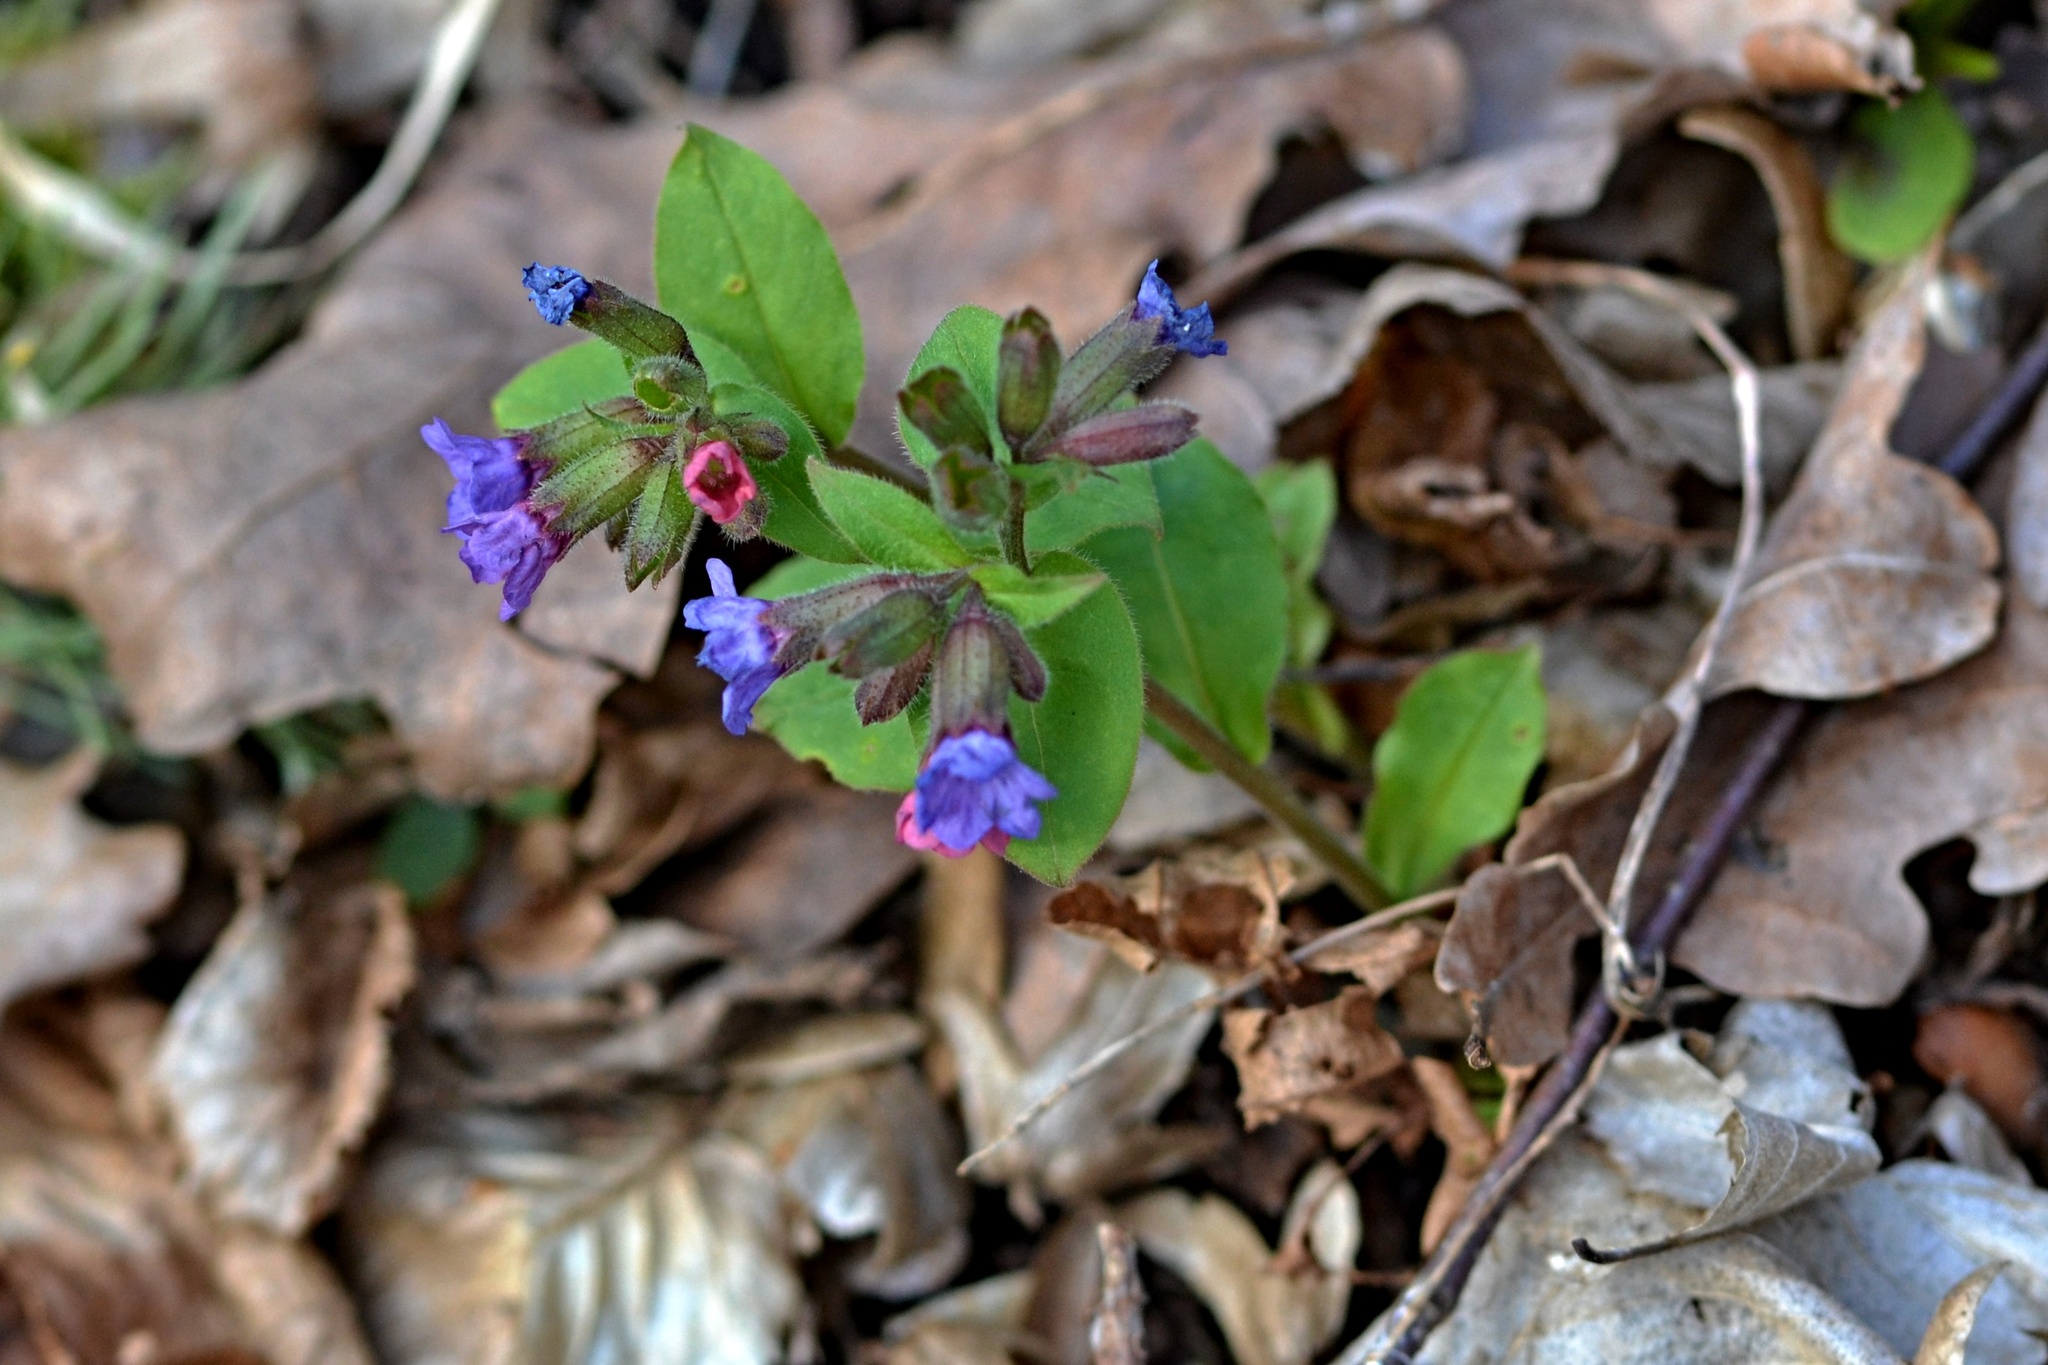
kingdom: Plantae
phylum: Tracheophyta
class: Magnoliopsida
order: Boraginales
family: Boraginaceae
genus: Pulmonaria
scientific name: Pulmonaria obscura
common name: Suffolk lungwort
